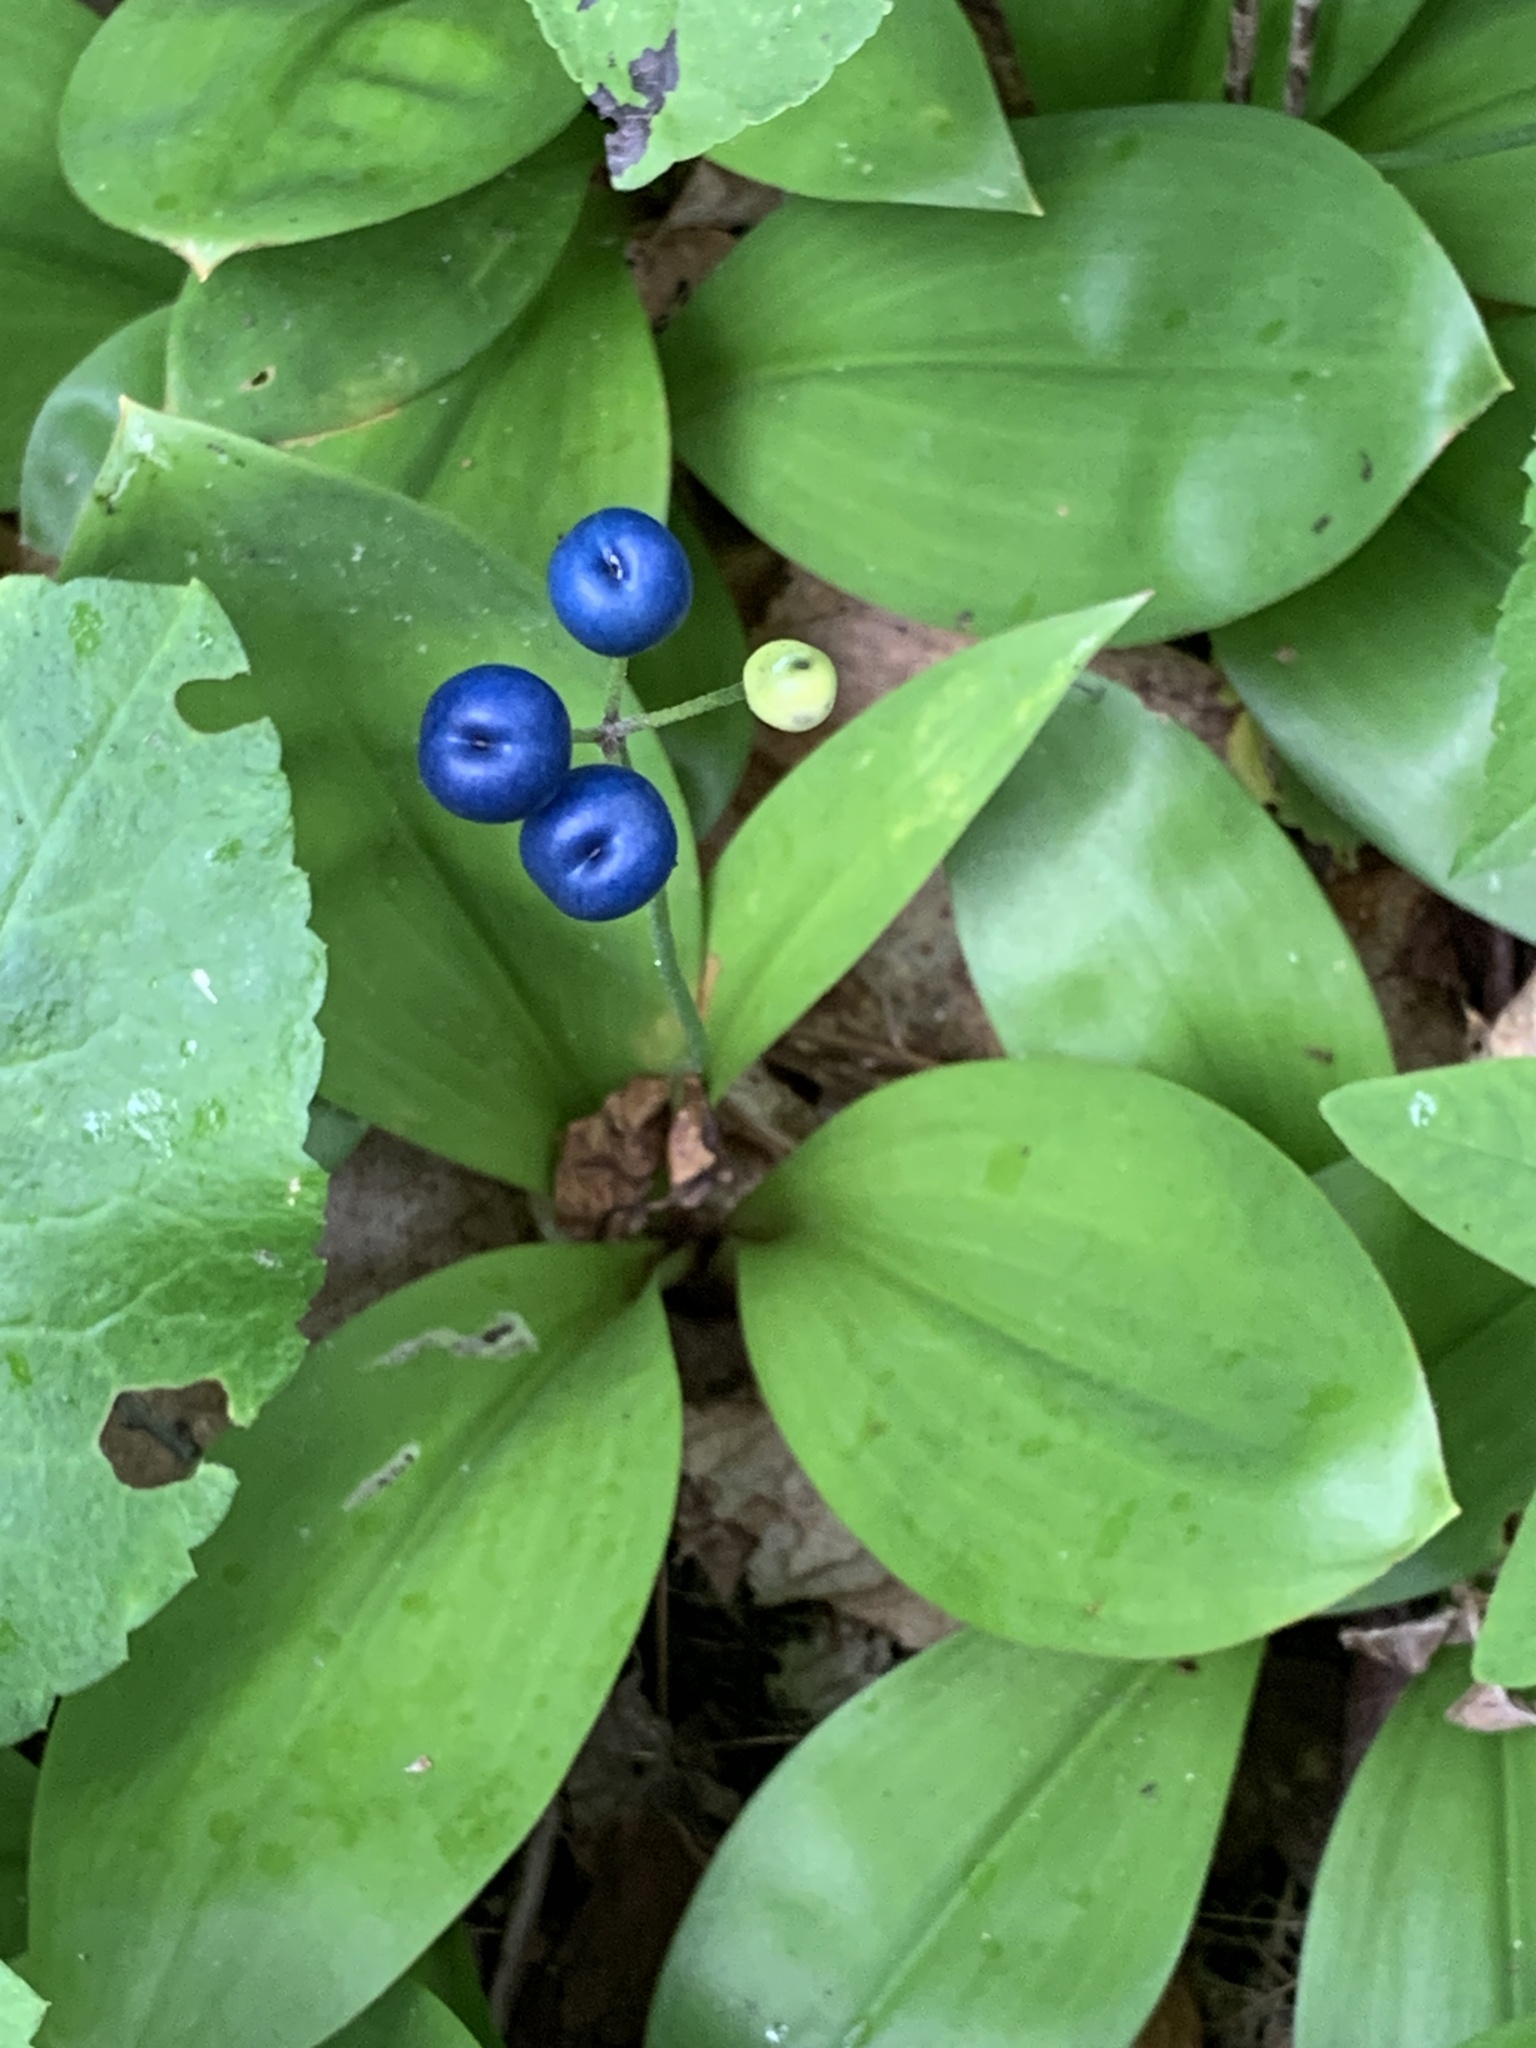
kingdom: Plantae
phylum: Tracheophyta
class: Liliopsida
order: Liliales
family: Liliaceae
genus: Clintonia
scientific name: Clintonia borealis
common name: Yellow clintonia
